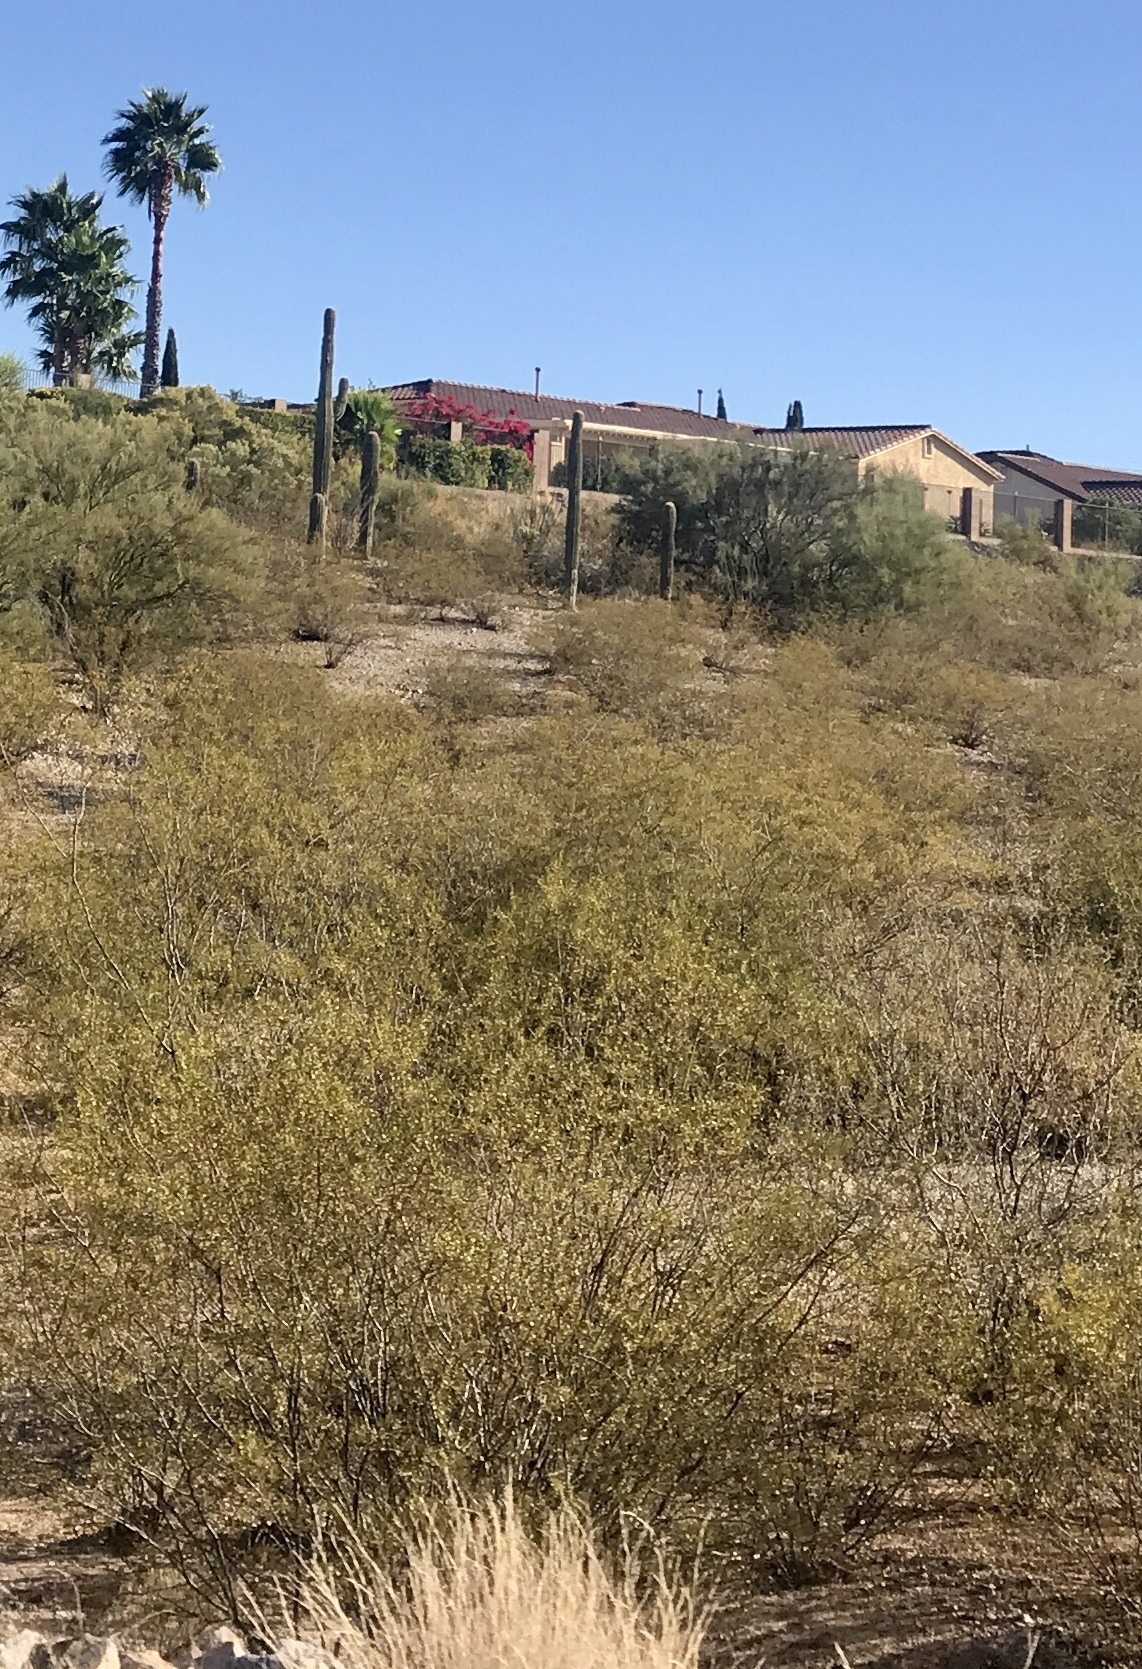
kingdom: Plantae
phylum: Tracheophyta
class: Magnoliopsida
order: Zygophyllales
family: Zygophyllaceae
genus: Larrea
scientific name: Larrea tridentata
